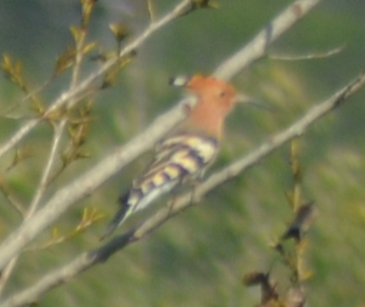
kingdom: Animalia
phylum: Chordata
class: Aves
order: Bucerotiformes
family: Upupidae
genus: Upupa
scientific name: Upupa epops
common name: Eurasian hoopoe
